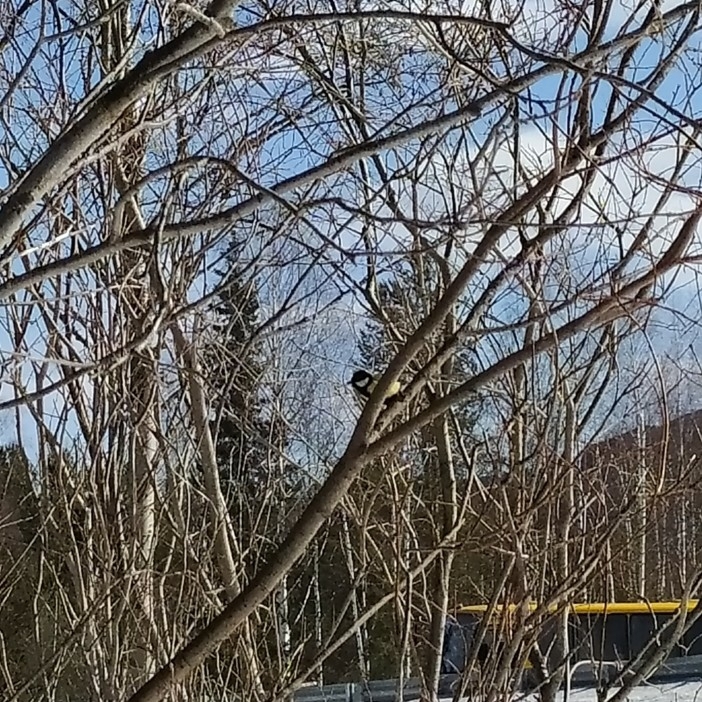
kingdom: Animalia
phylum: Chordata
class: Aves
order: Passeriformes
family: Paridae
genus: Parus
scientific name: Parus major
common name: Great tit
